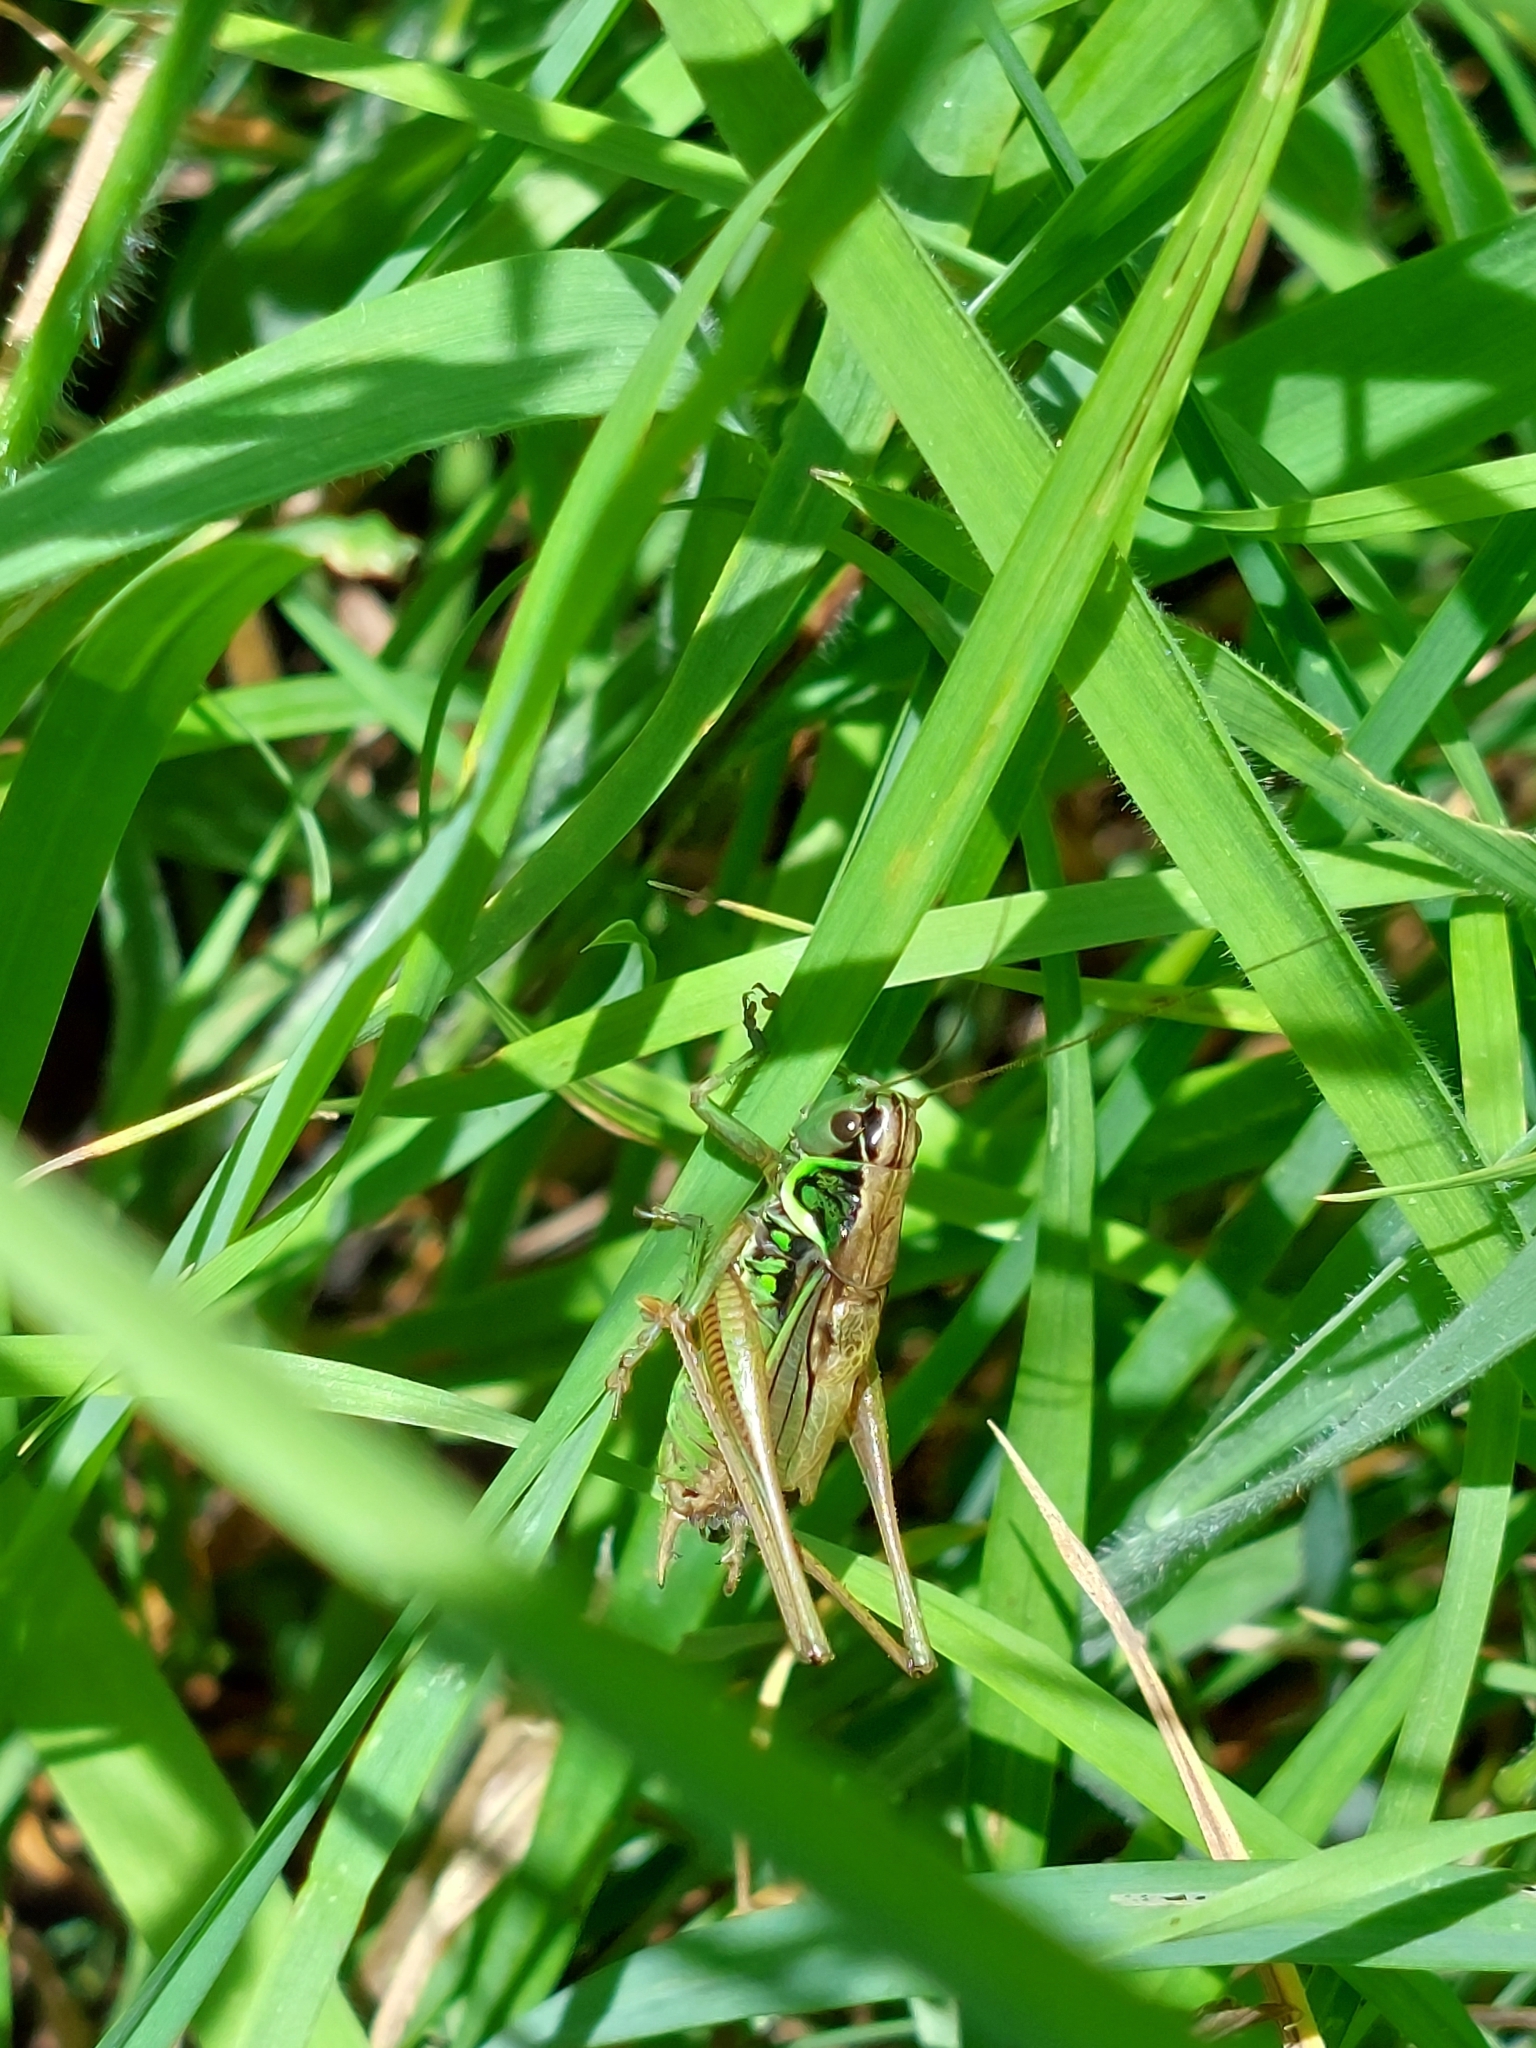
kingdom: Animalia
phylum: Arthropoda
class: Insecta
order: Orthoptera
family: Tettigoniidae
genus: Roeseliana
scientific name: Roeseliana roeselii
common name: Roesel's bush cricket
